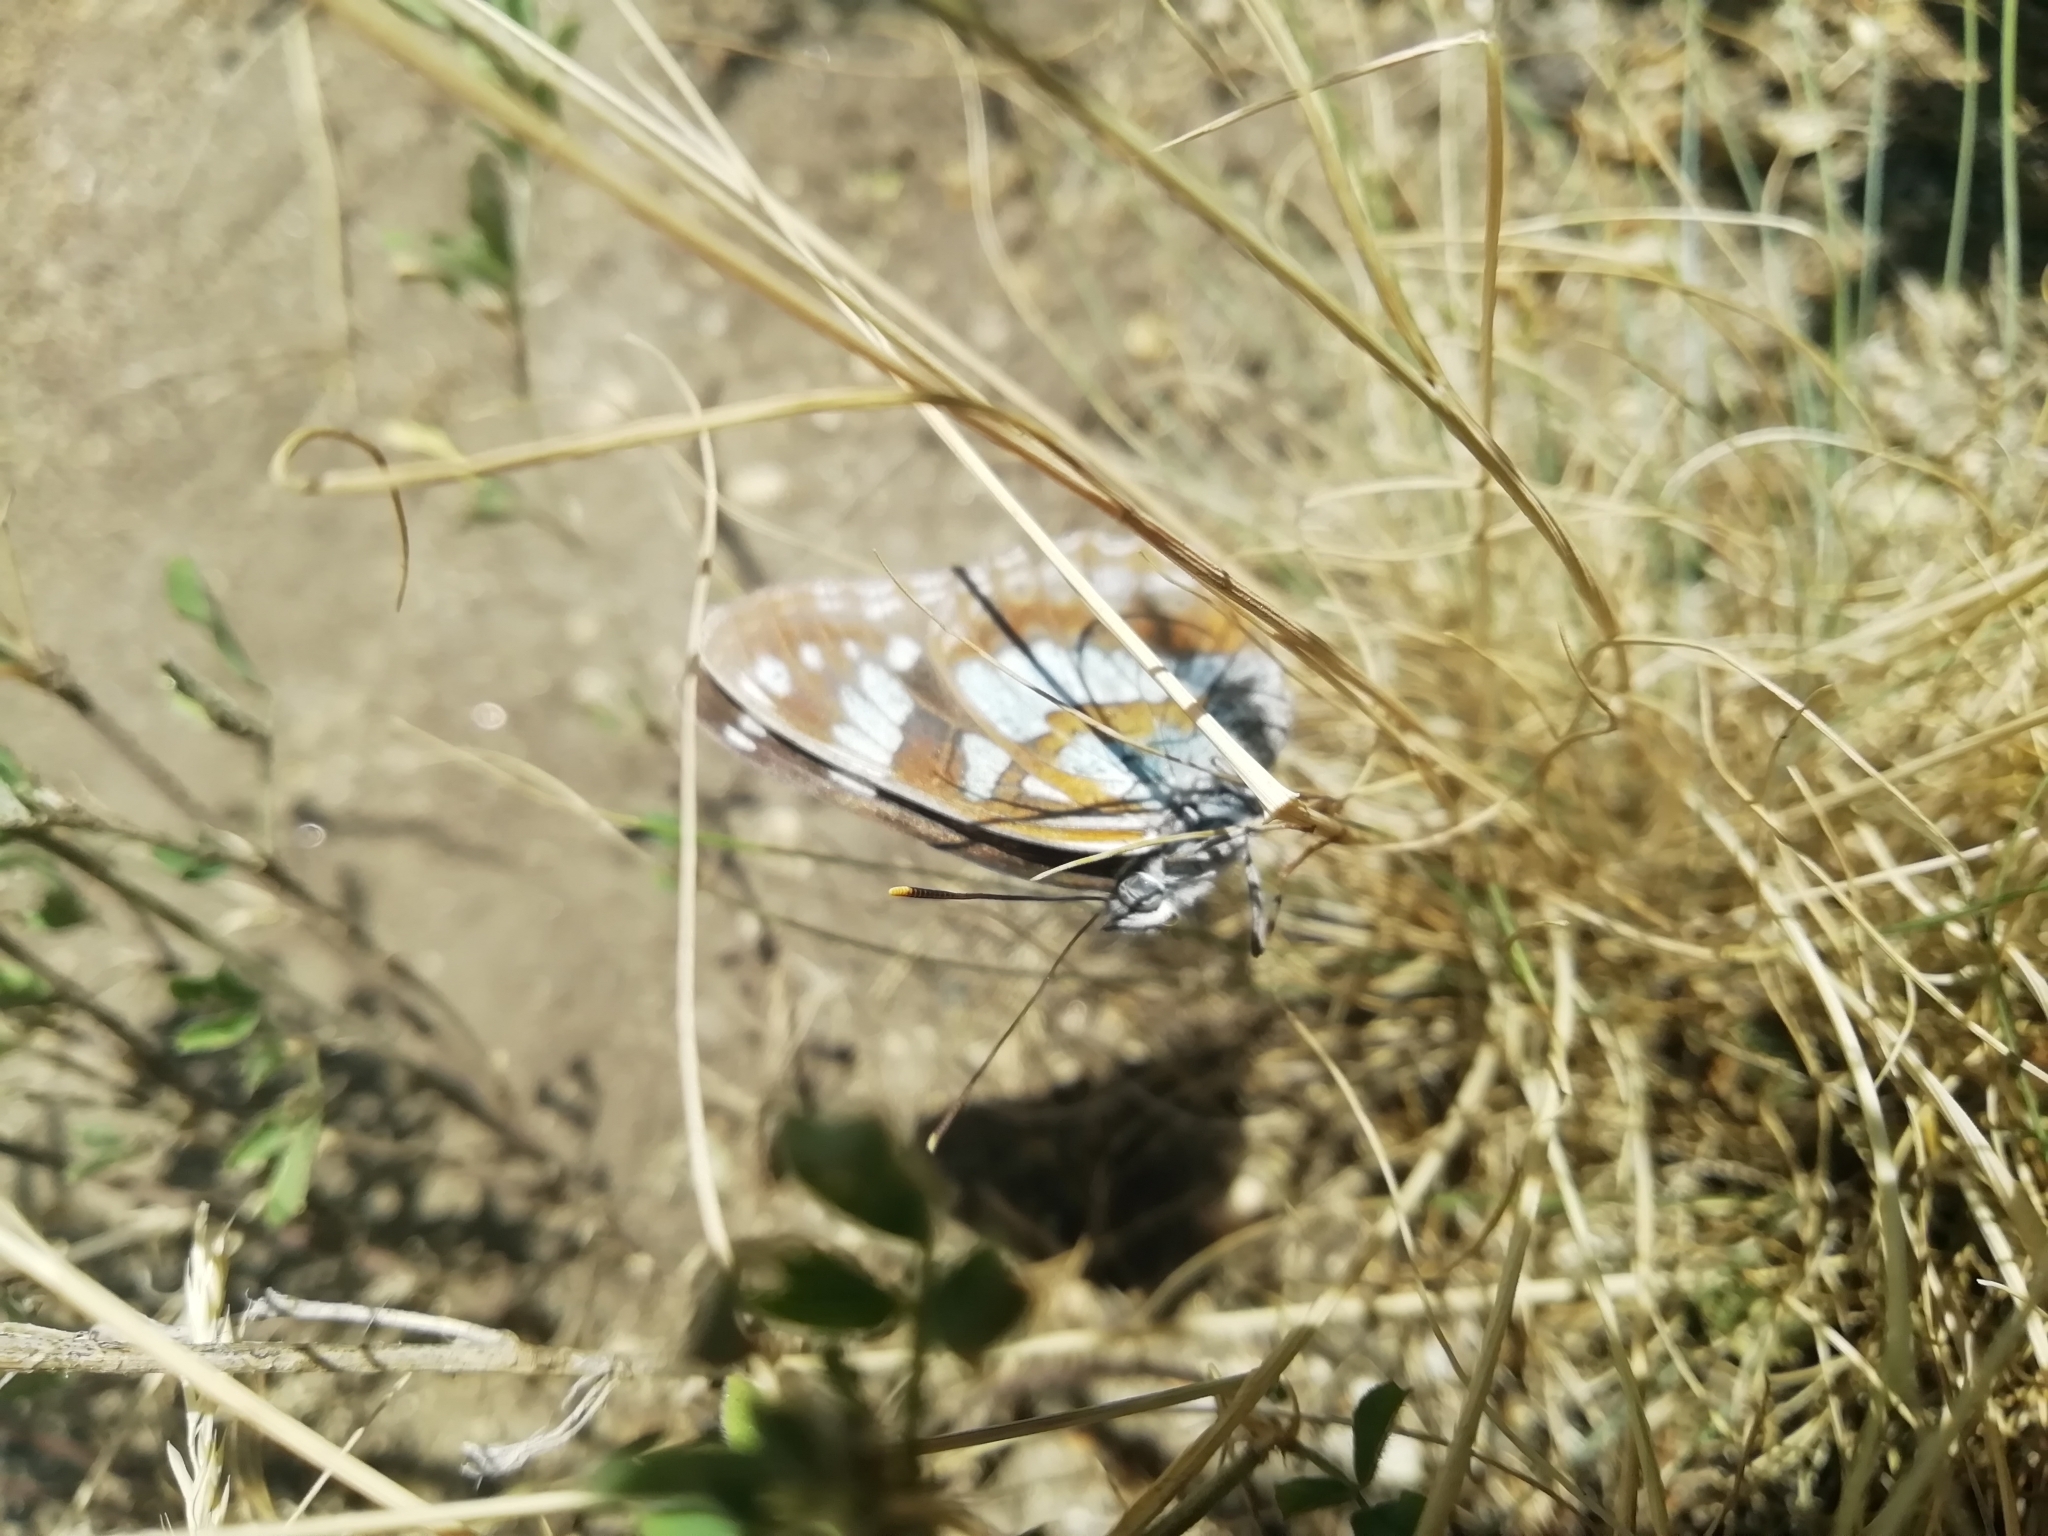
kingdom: Animalia
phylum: Arthropoda
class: Insecta
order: Lepidoptera
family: Nymphalidae
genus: Limenitis
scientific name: Limenitis helmanni
